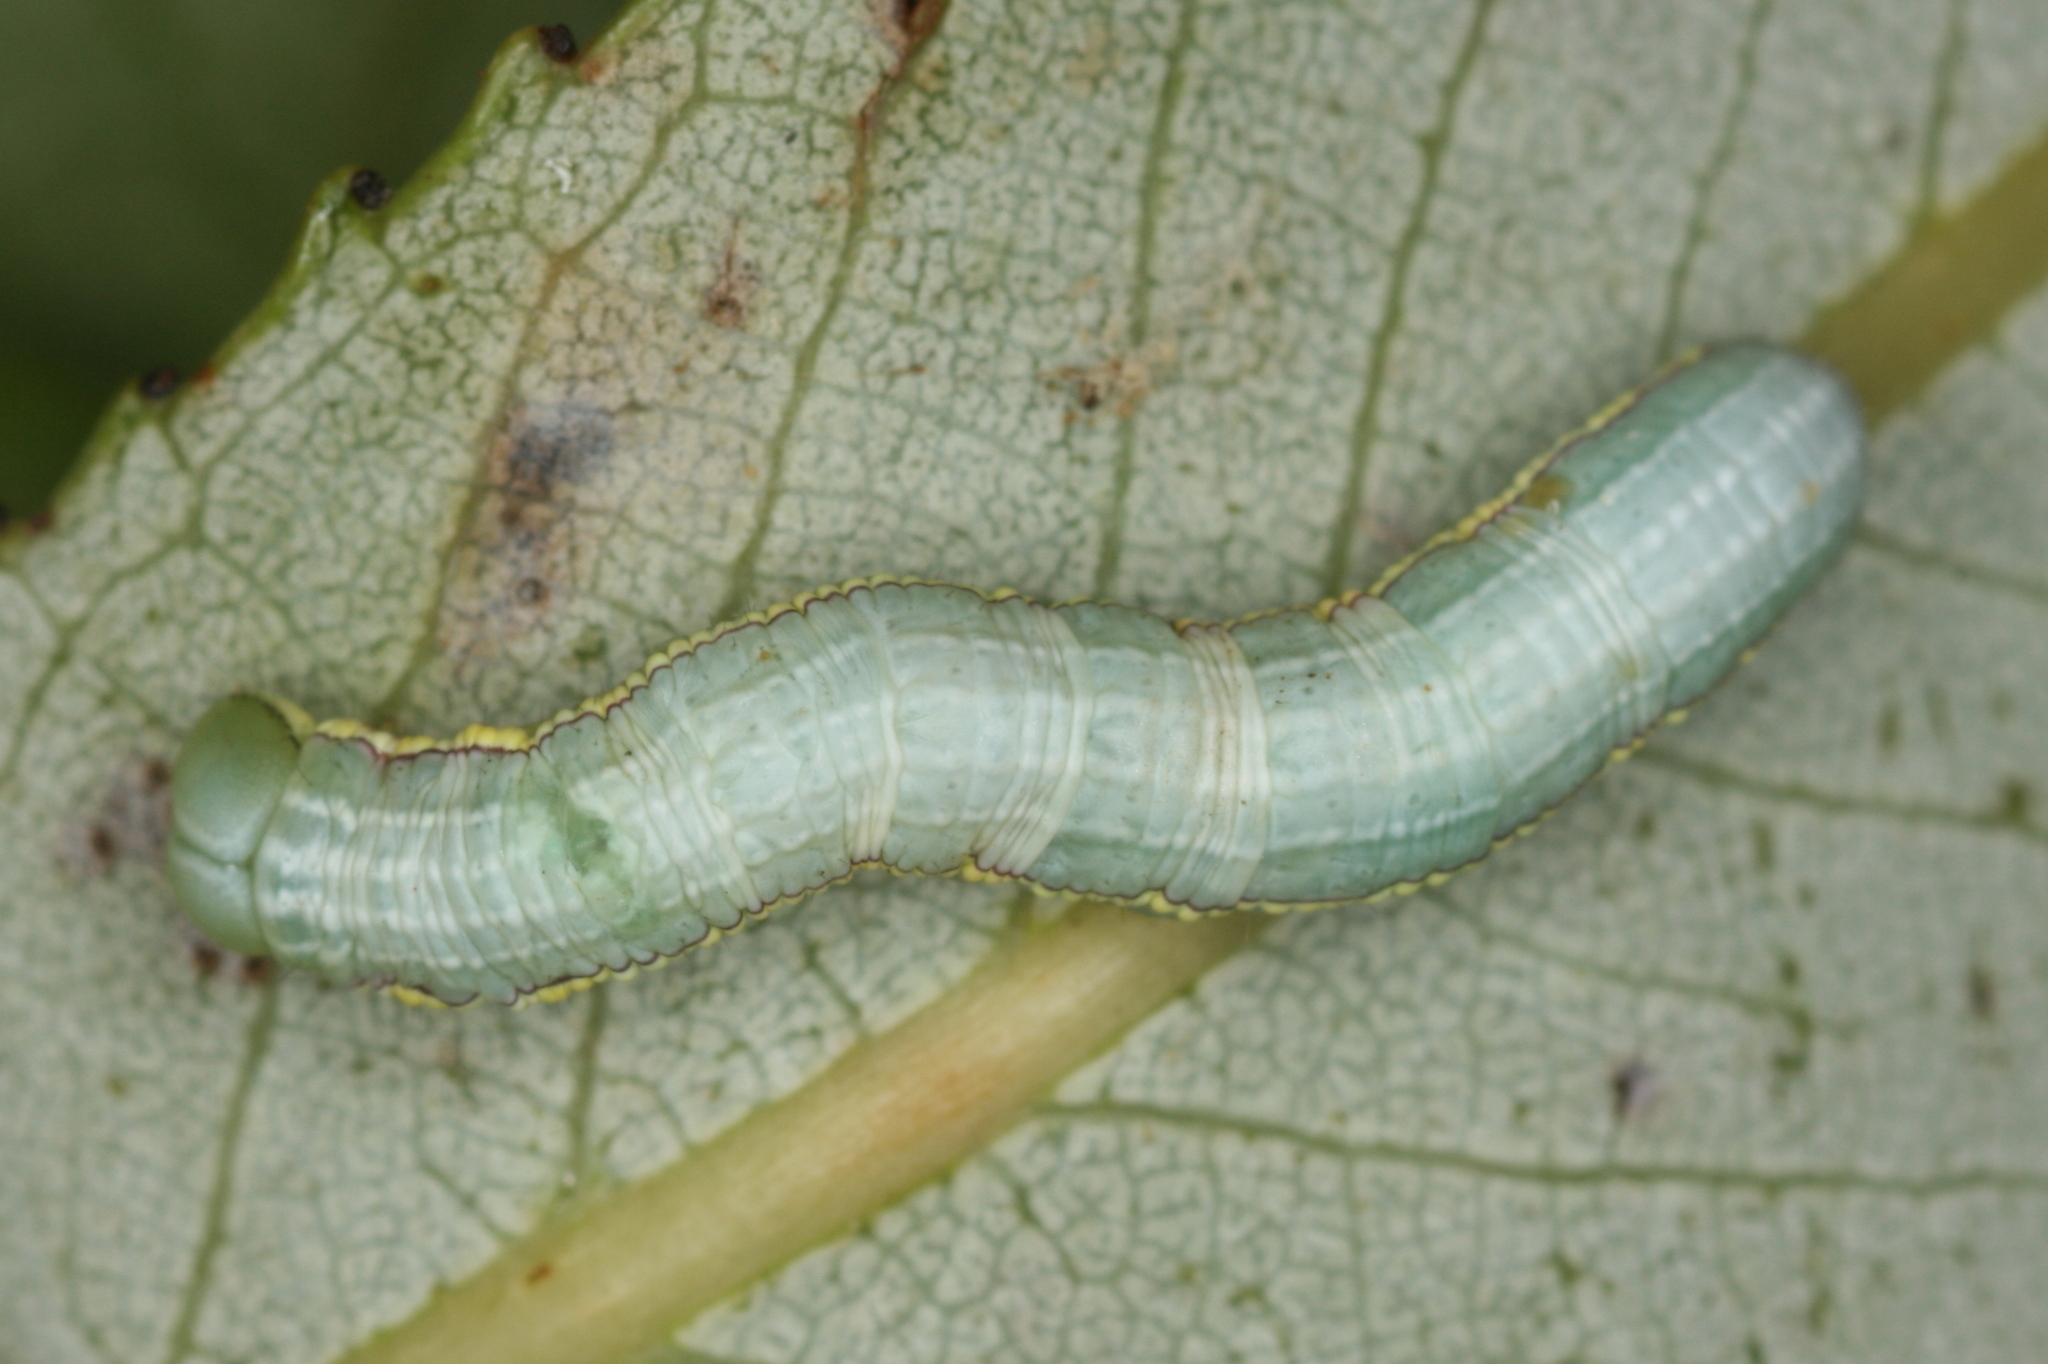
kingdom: Animalia
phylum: Arthropoda
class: Insecta
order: Lepidoptera
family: Notodontidae
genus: Pterostoma
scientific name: Pterostoma palpina
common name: Pale prominent
